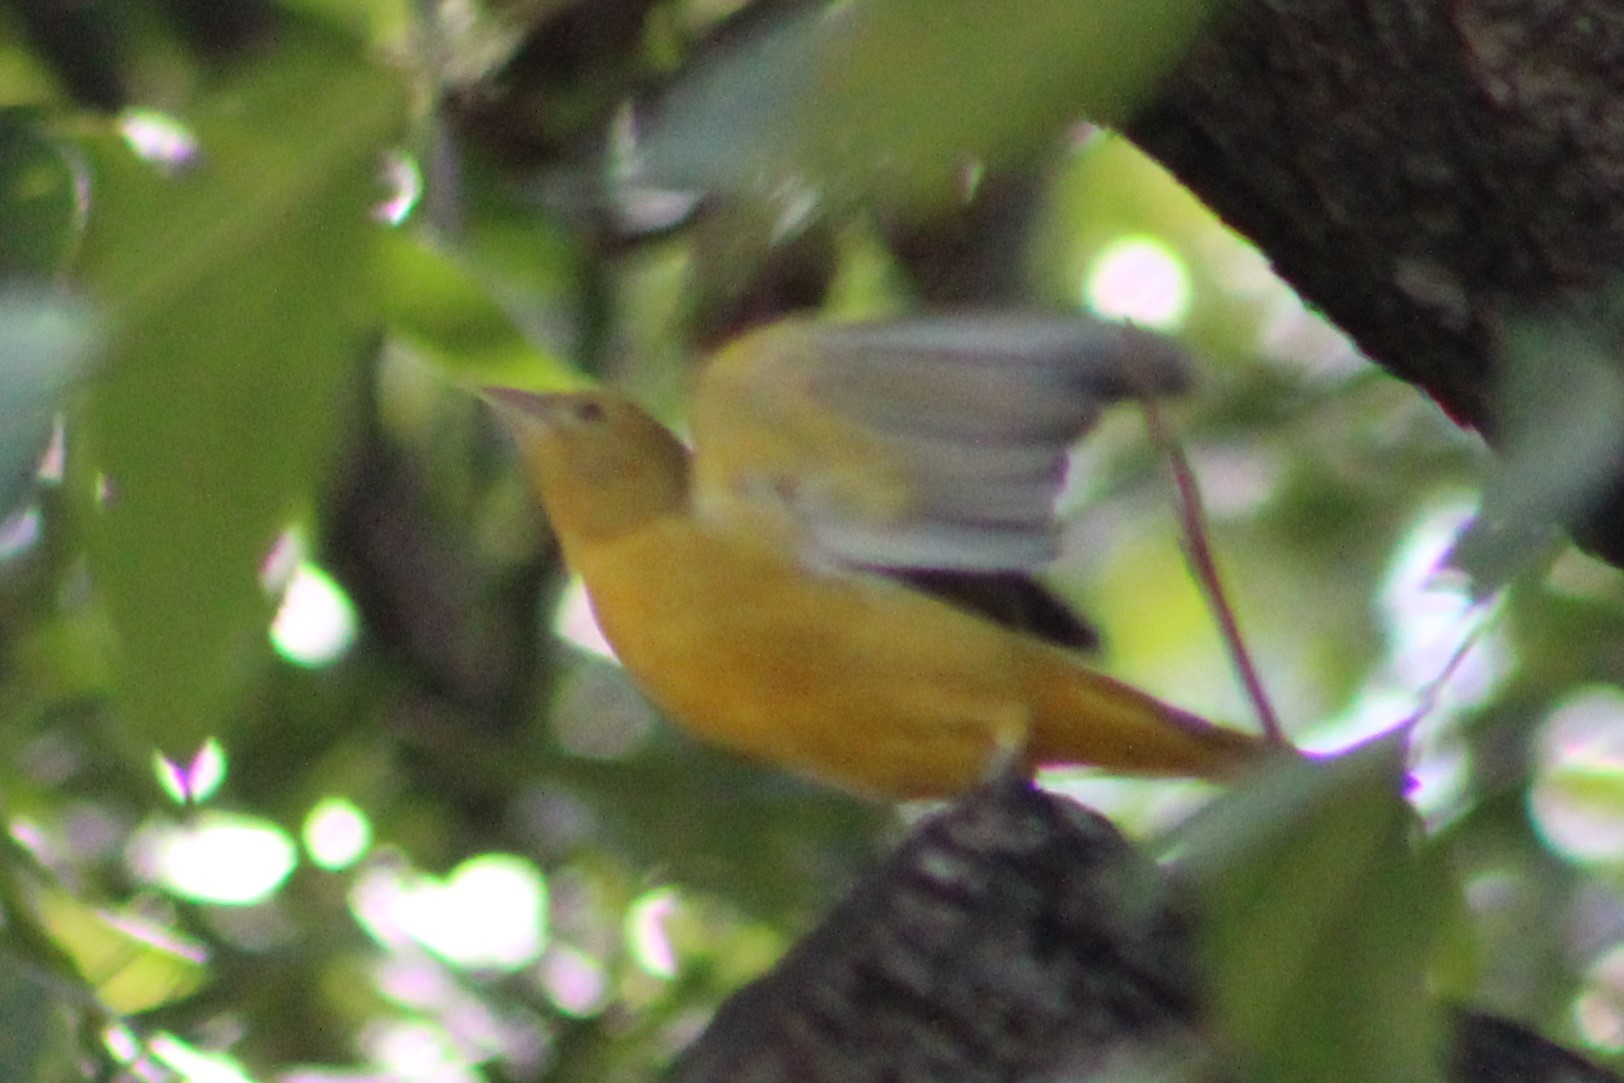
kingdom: Animalia
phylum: Chordata
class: Aves
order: Passeriformes
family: Cardinalidae
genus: Piranga
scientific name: Piranga rubra
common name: Summer tanager
